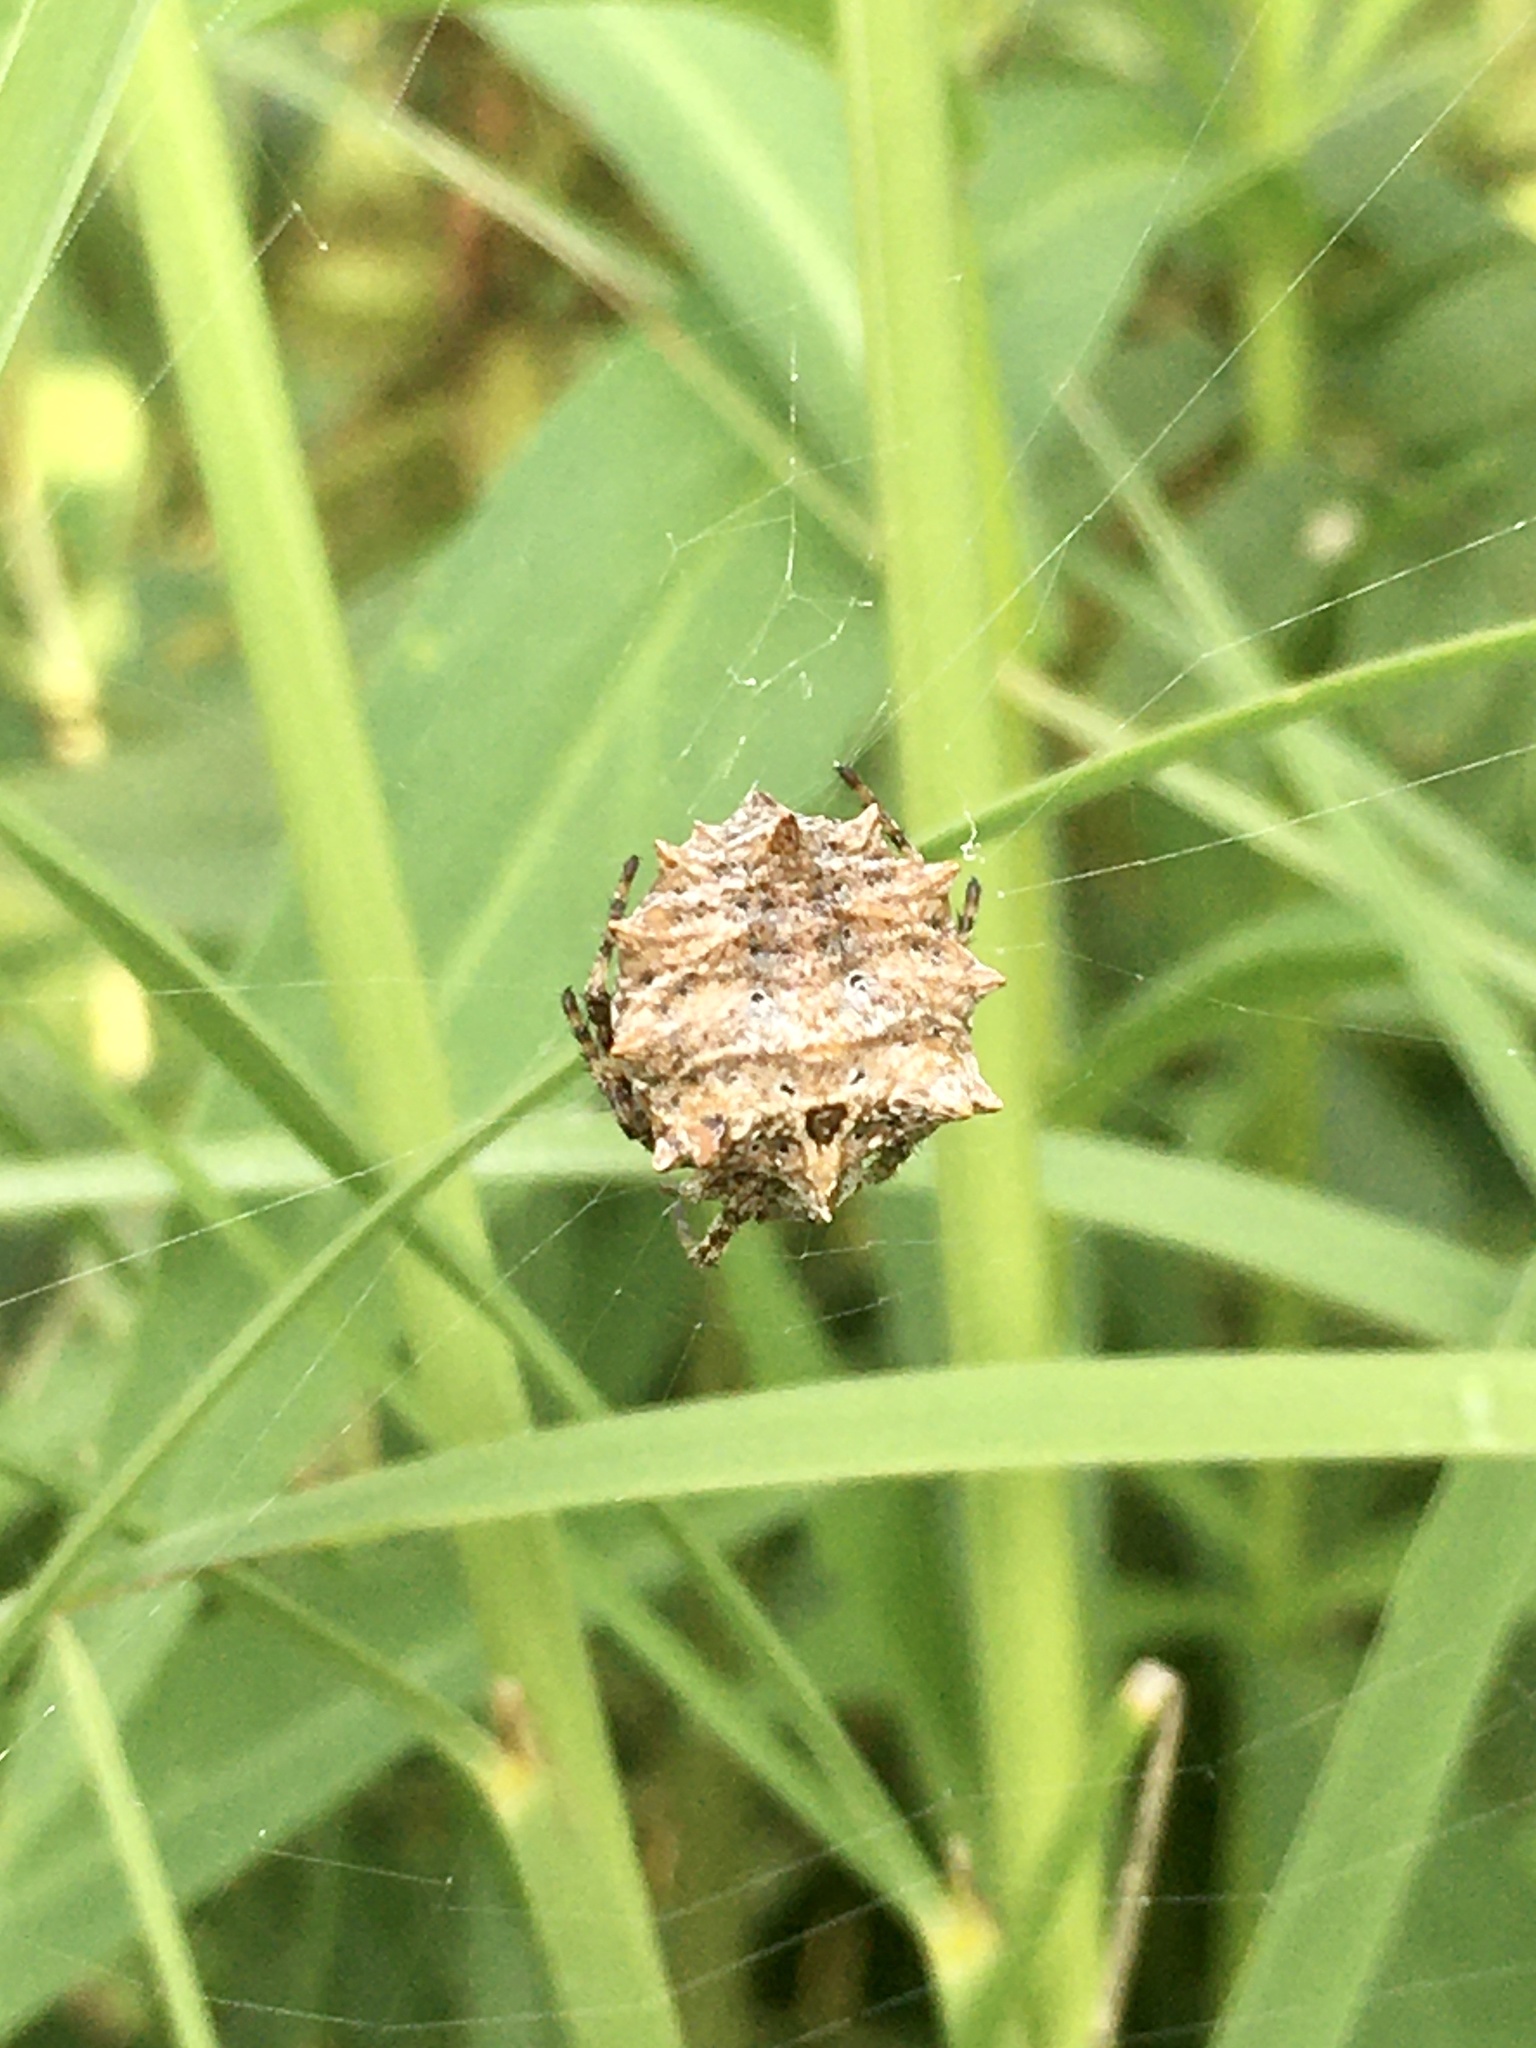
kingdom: Animalia
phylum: Arthropoda
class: Arachnida
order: Araneae
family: Araneidae
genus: Acanthepeira
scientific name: Acanthepeira stellata
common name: Starbellied orbweaver
